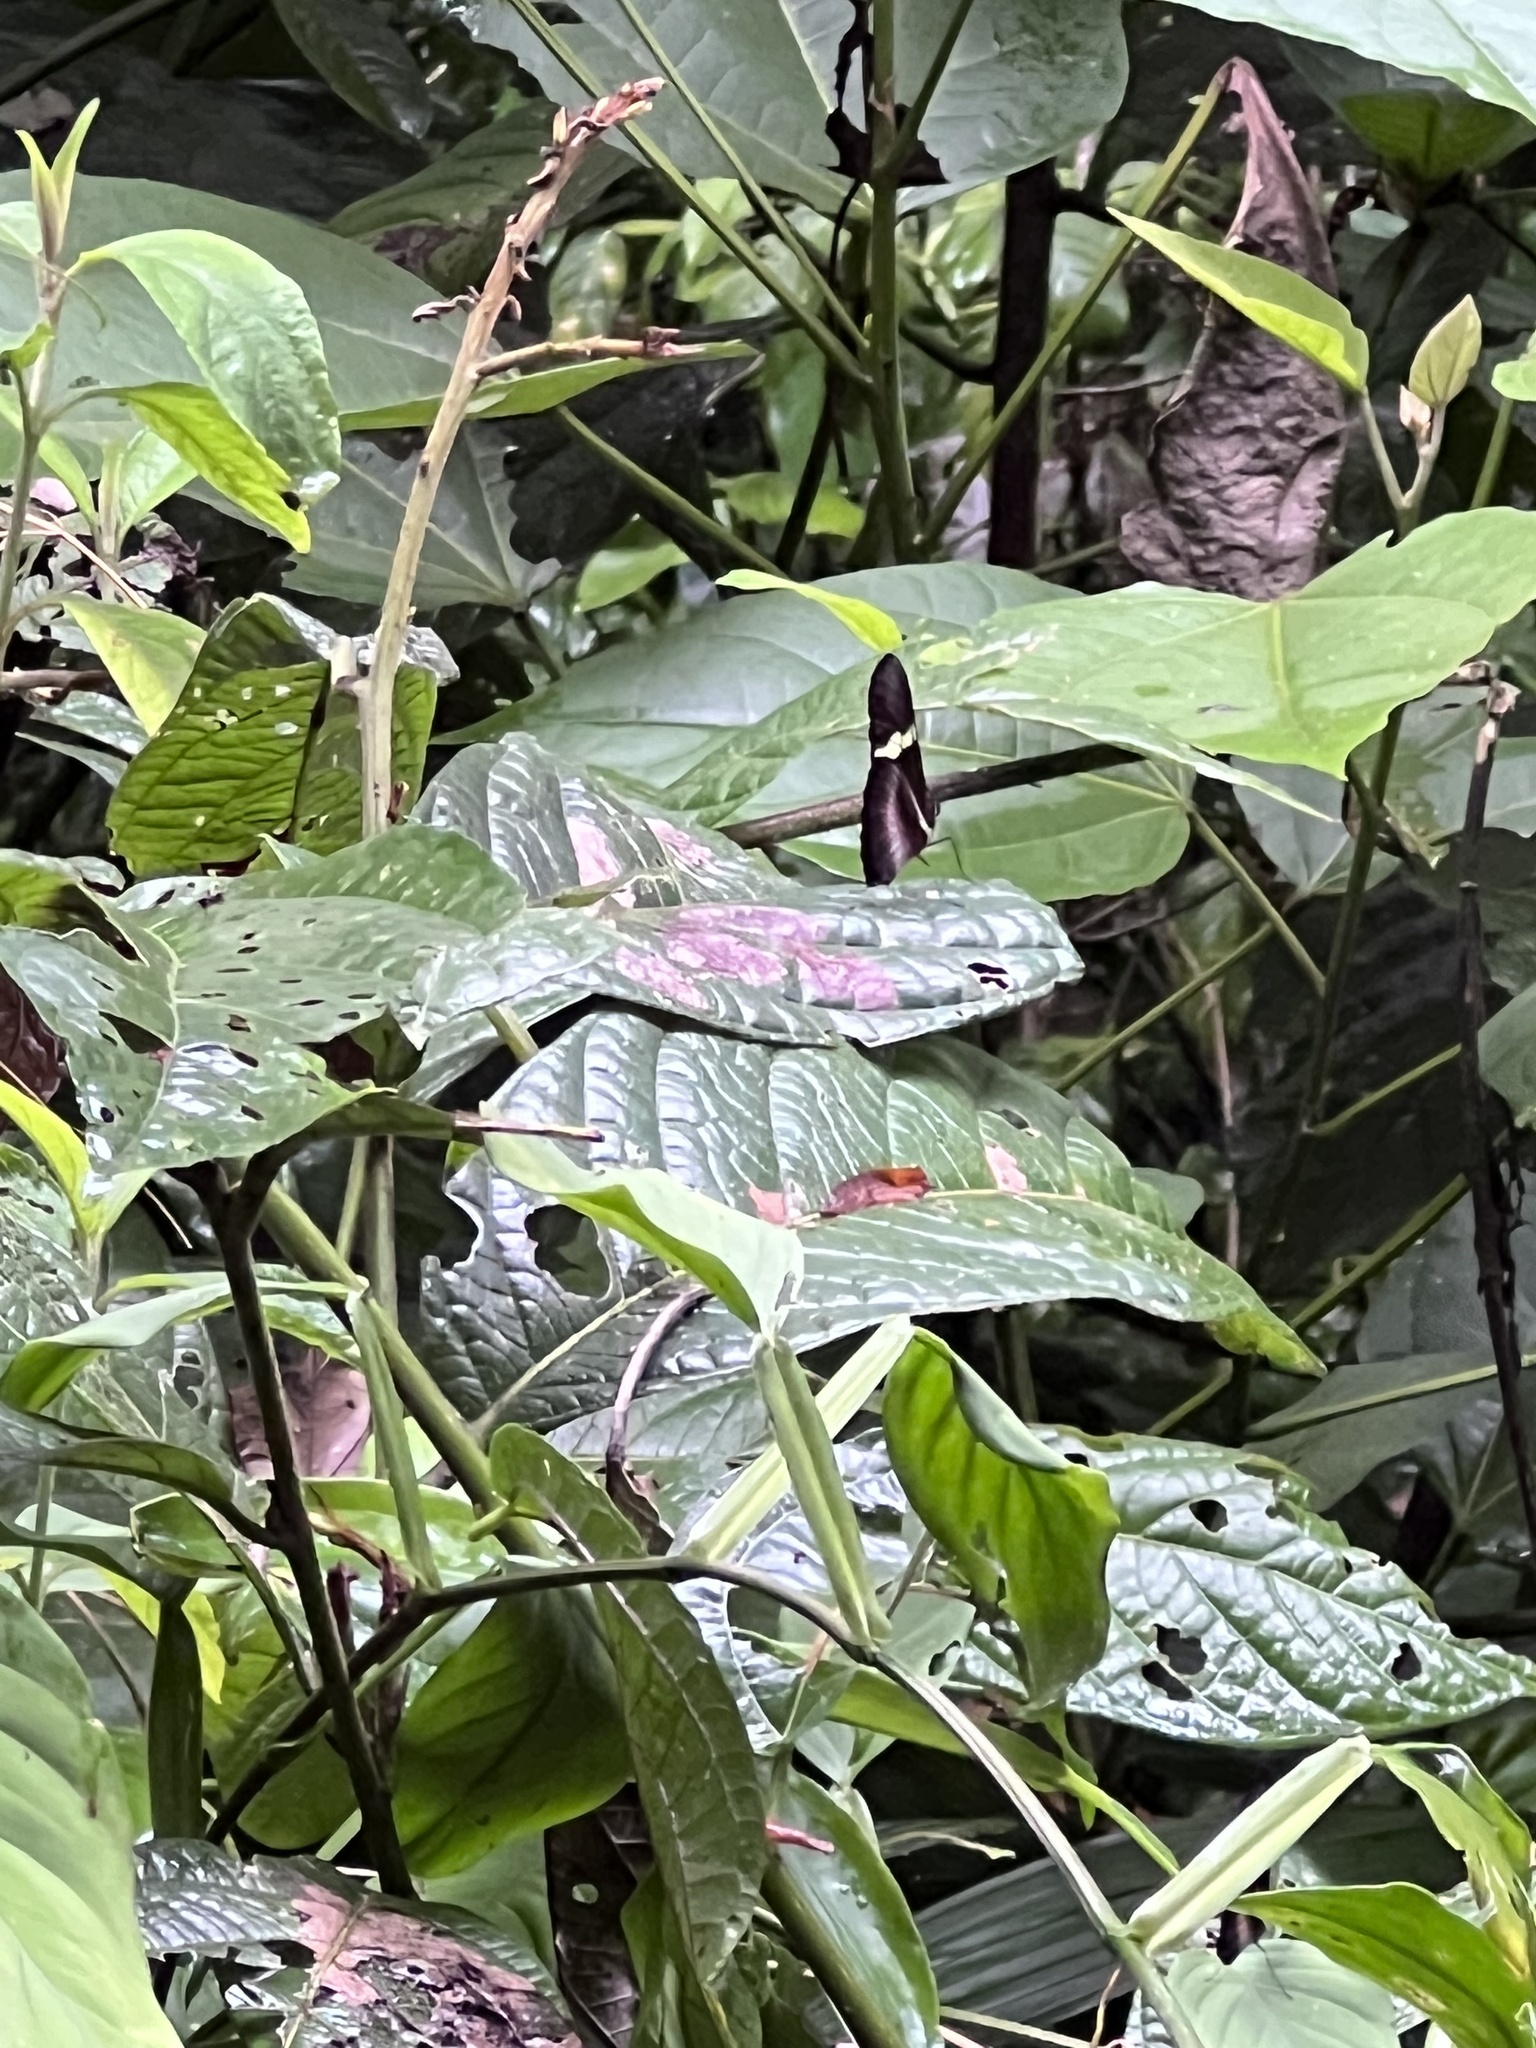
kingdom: Animalia
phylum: Arthropoda
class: Insecta
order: Lepidoptera
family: Nymphalidae
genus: Heliconius
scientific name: Heliconius clysonymus
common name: Clysonymus longwing
